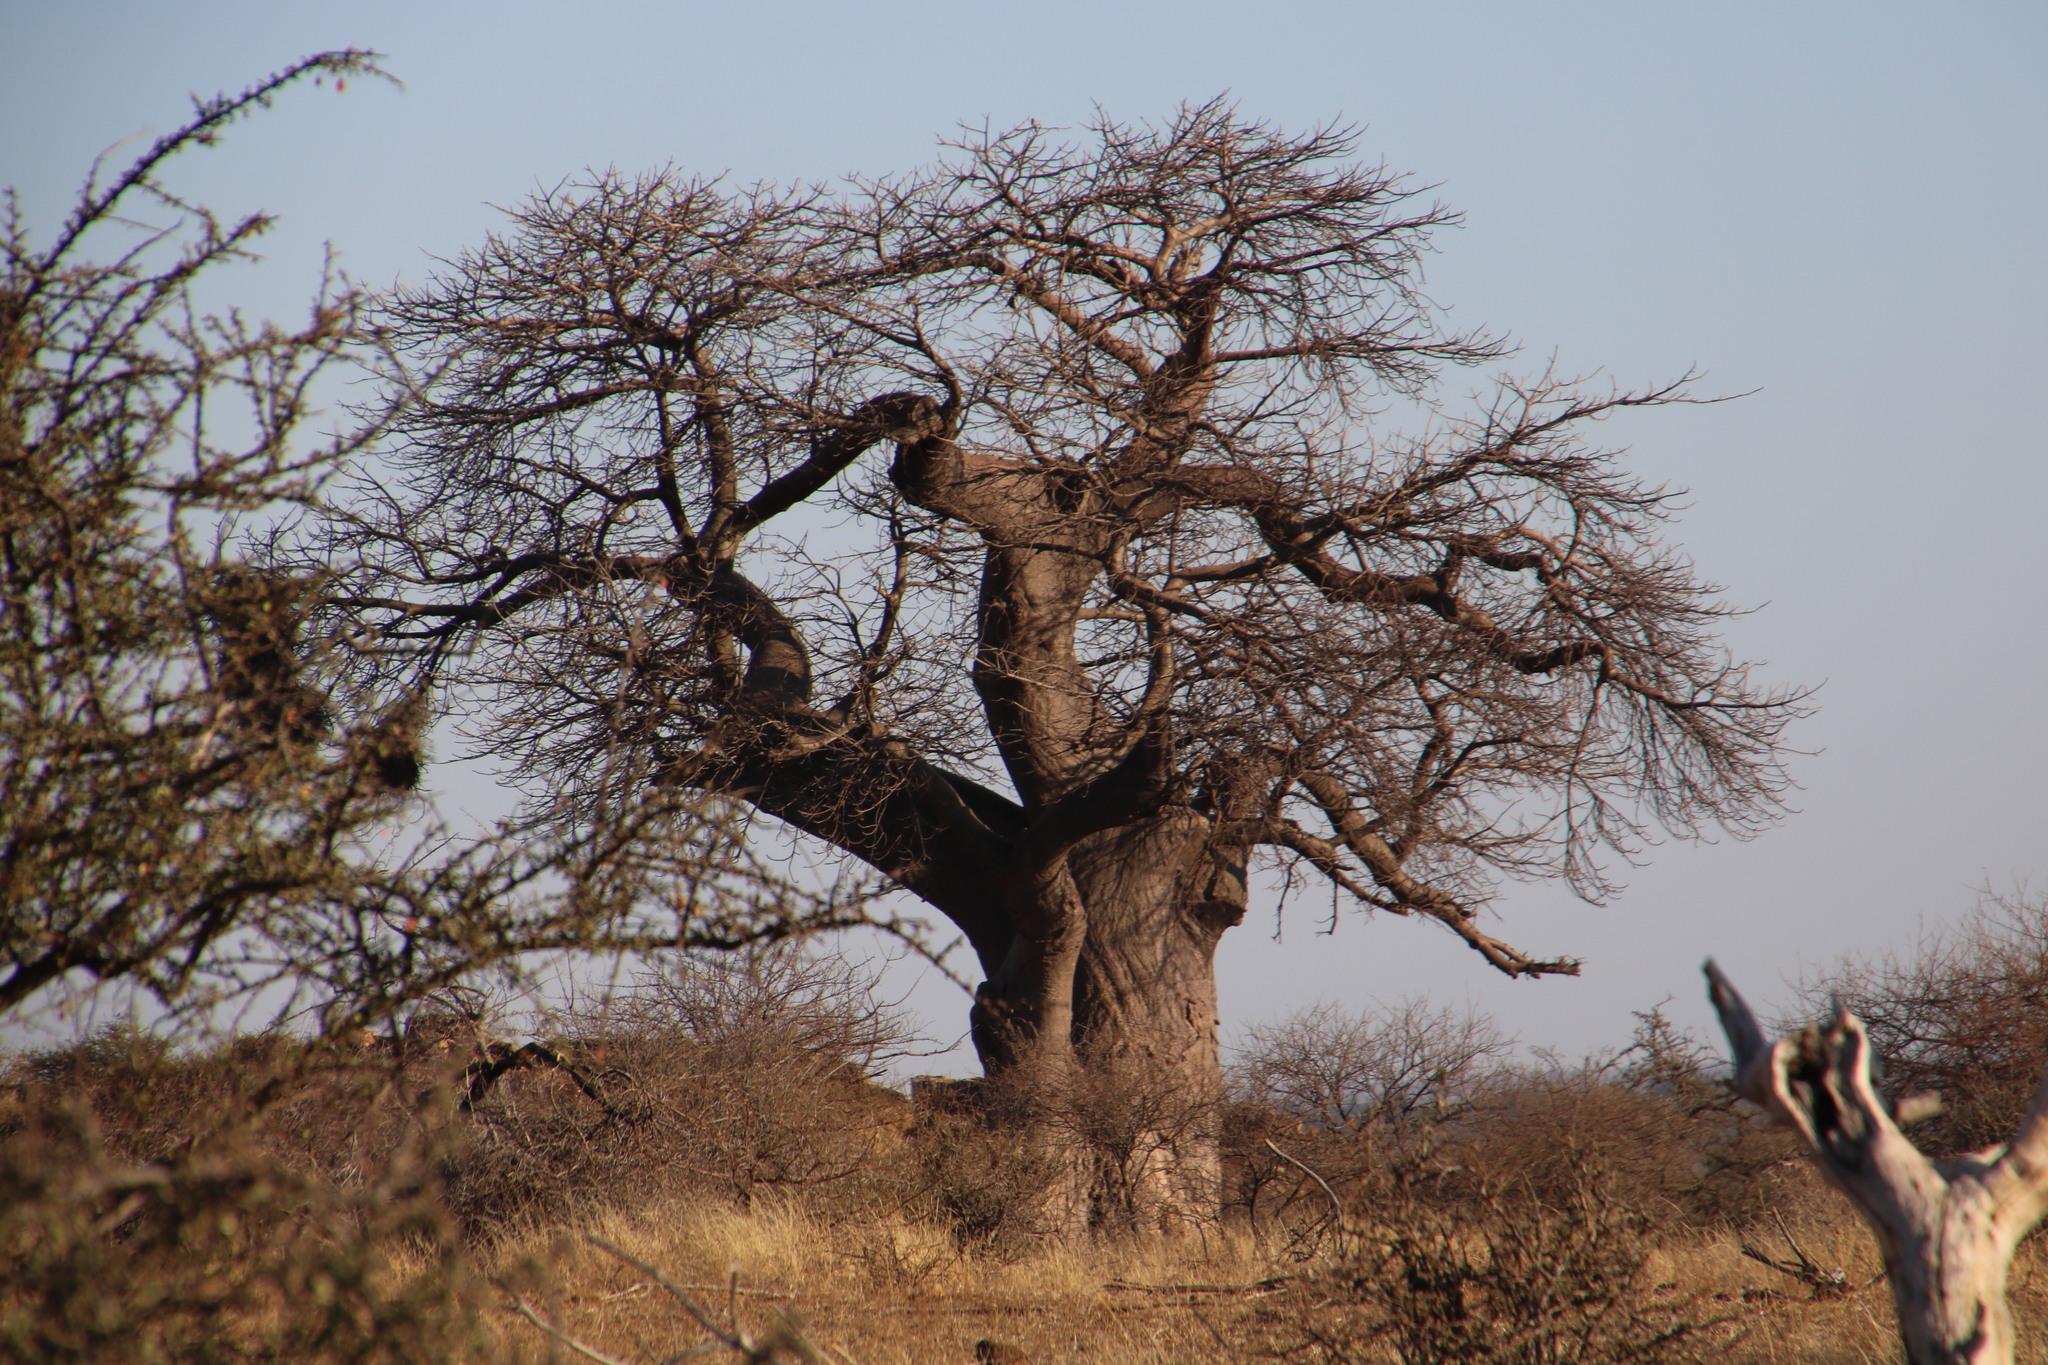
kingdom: Plantae
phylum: Tracheophyta
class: Magnoliopsida
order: Malvales
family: Malvaceae
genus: Adansonia
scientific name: Adansonia digitata
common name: Dead-rat-tree
